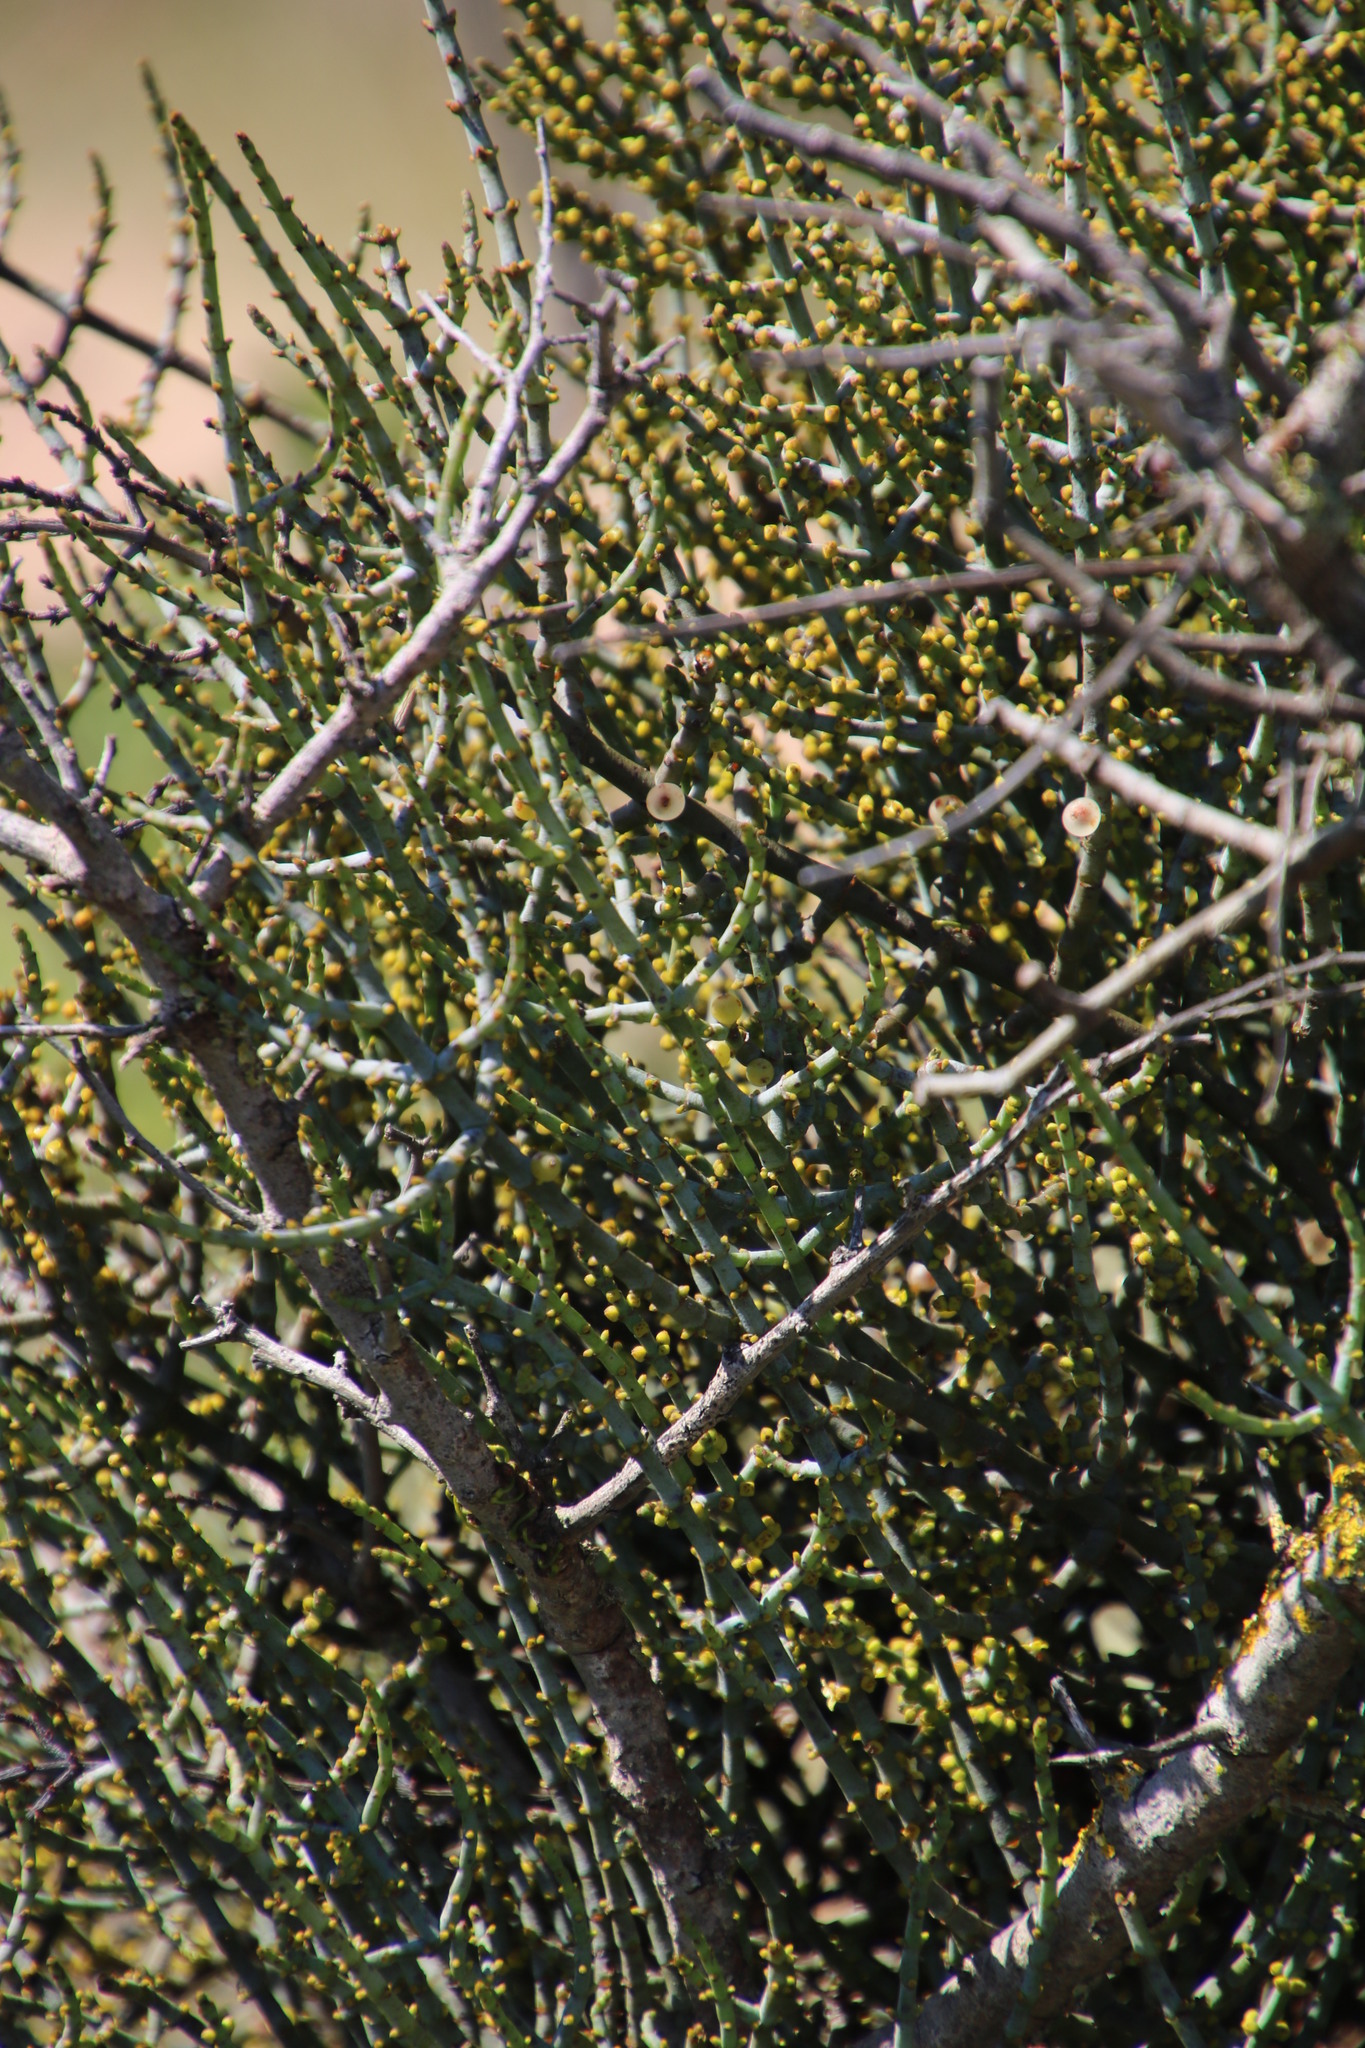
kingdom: Plantae
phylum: Tracheophyta
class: Magnoliopsida
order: Santalales
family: Viscaceae
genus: Viscum
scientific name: Viscum capense
